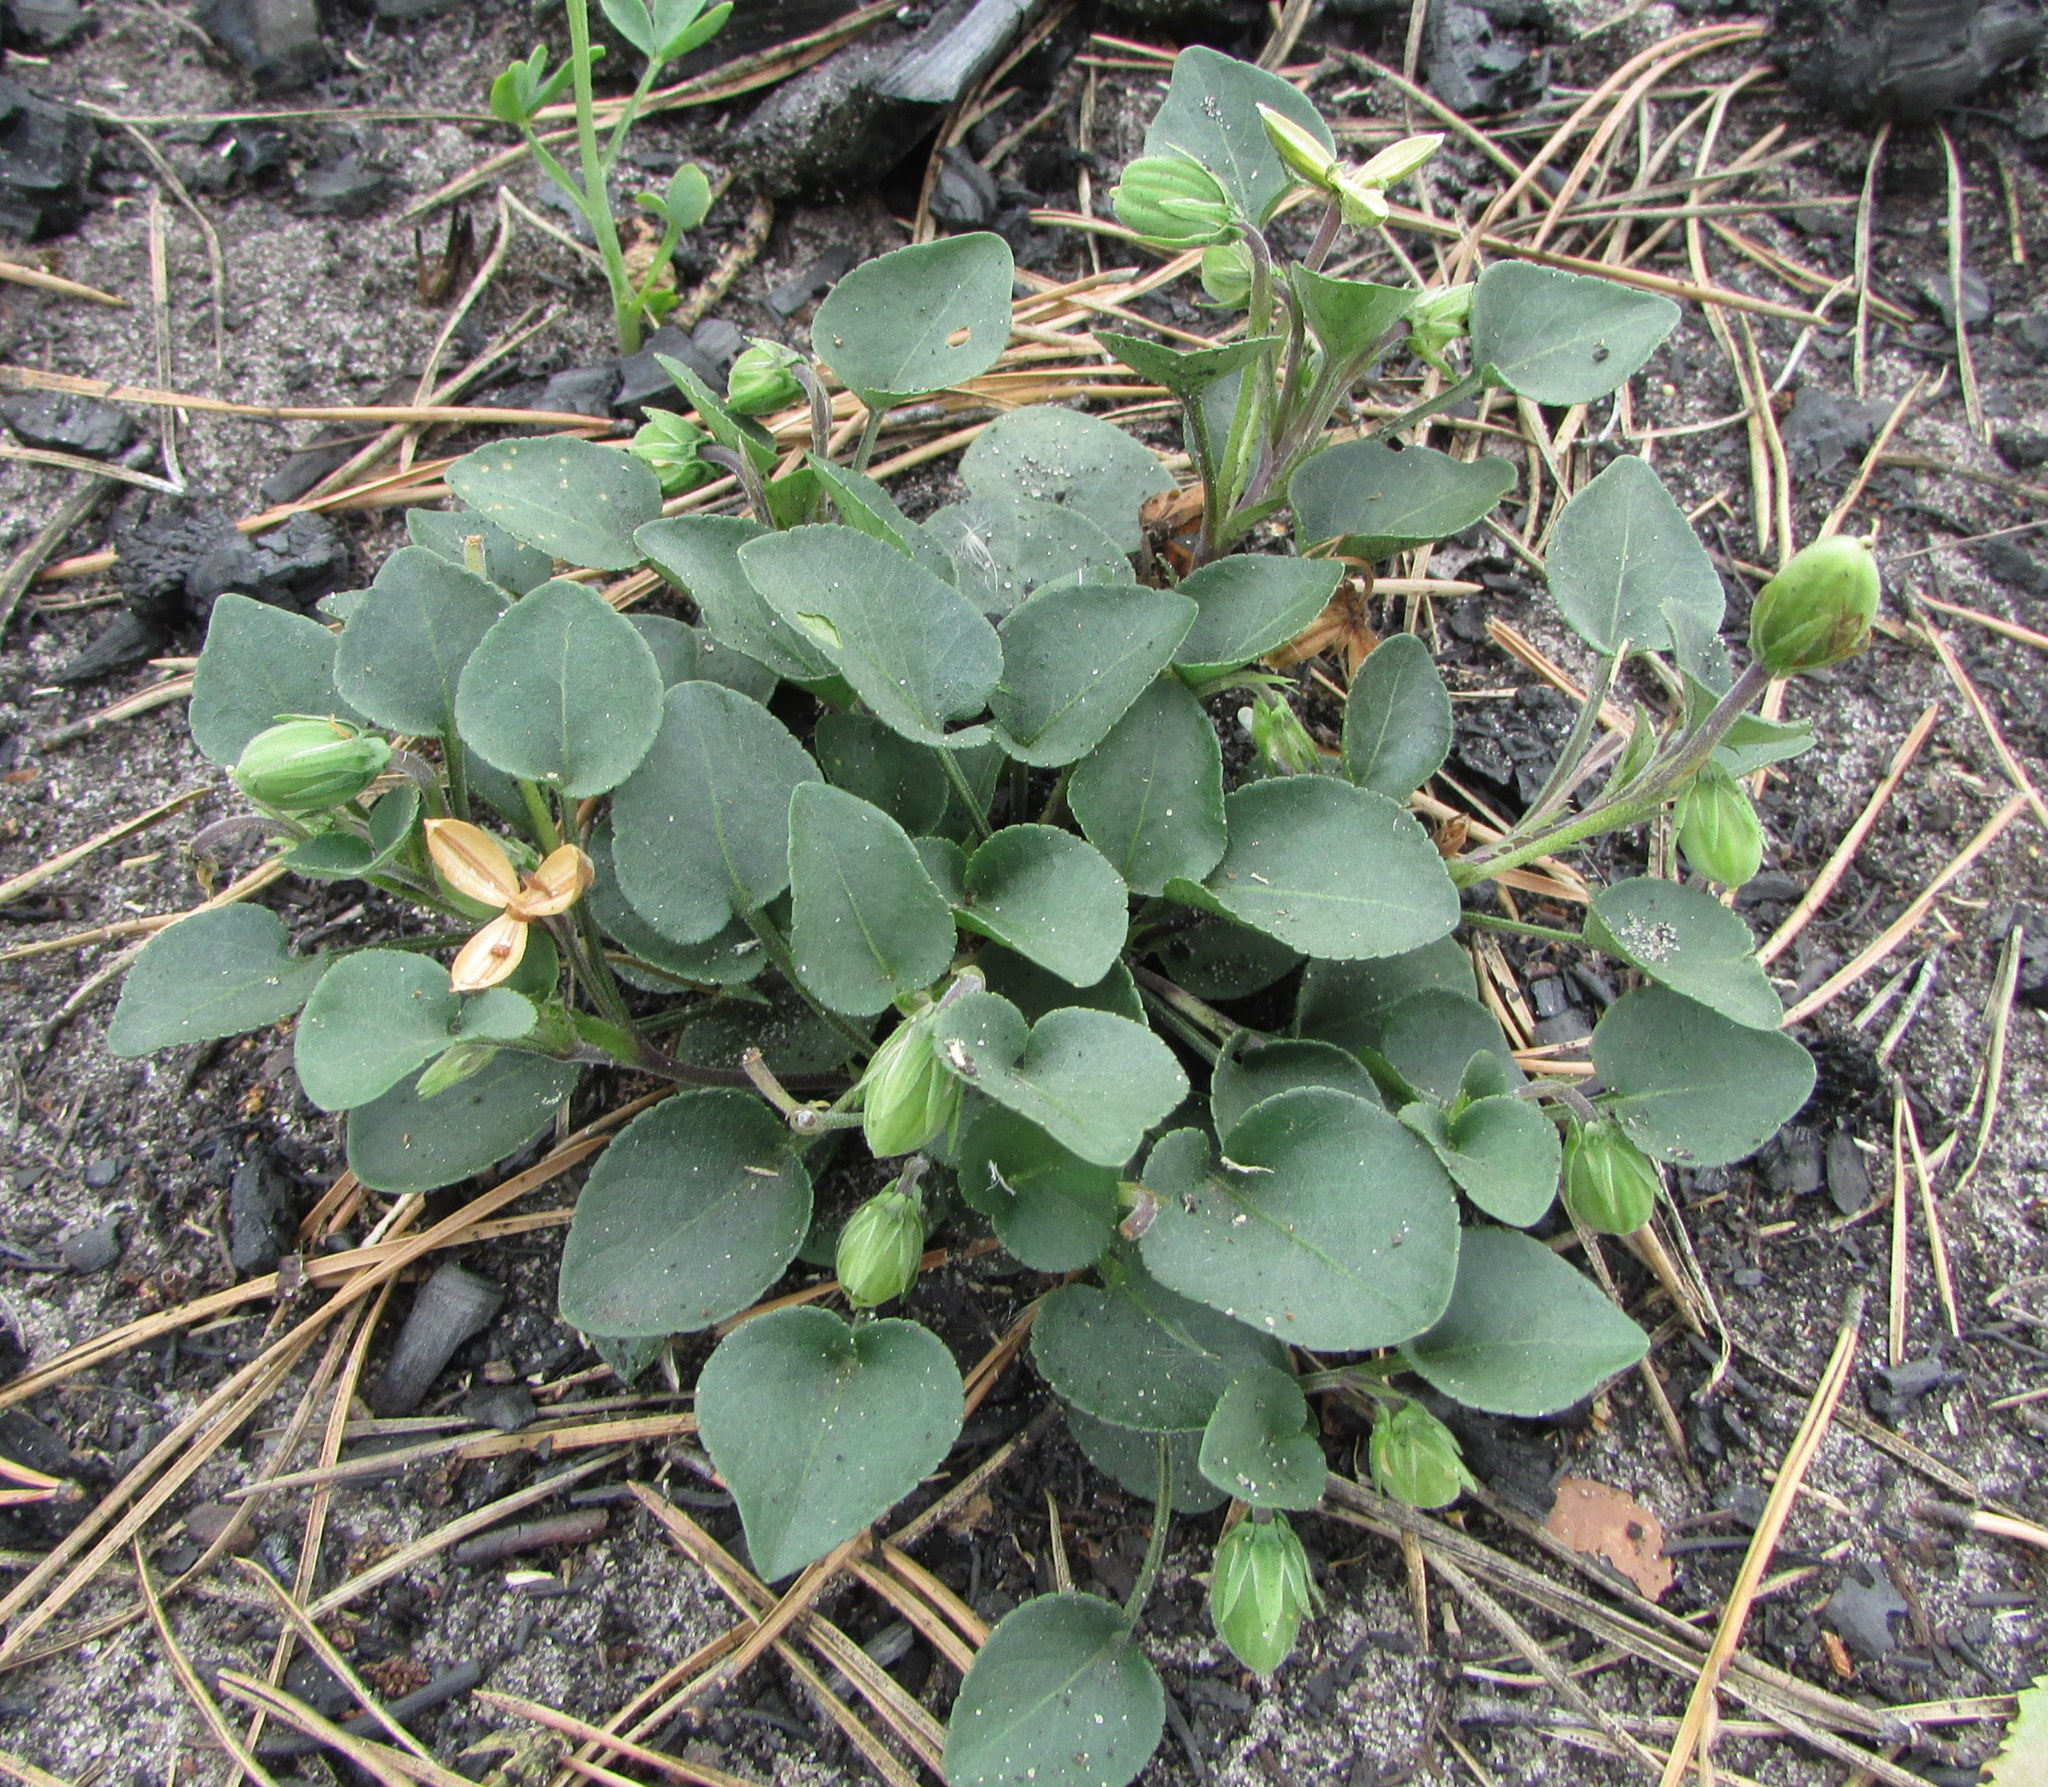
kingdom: Plantae
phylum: Tracheophyta
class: Magnoliopsida
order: Malpighiales
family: Violaceae
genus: Viola
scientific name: Viola rupestris
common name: Teesdale violet
